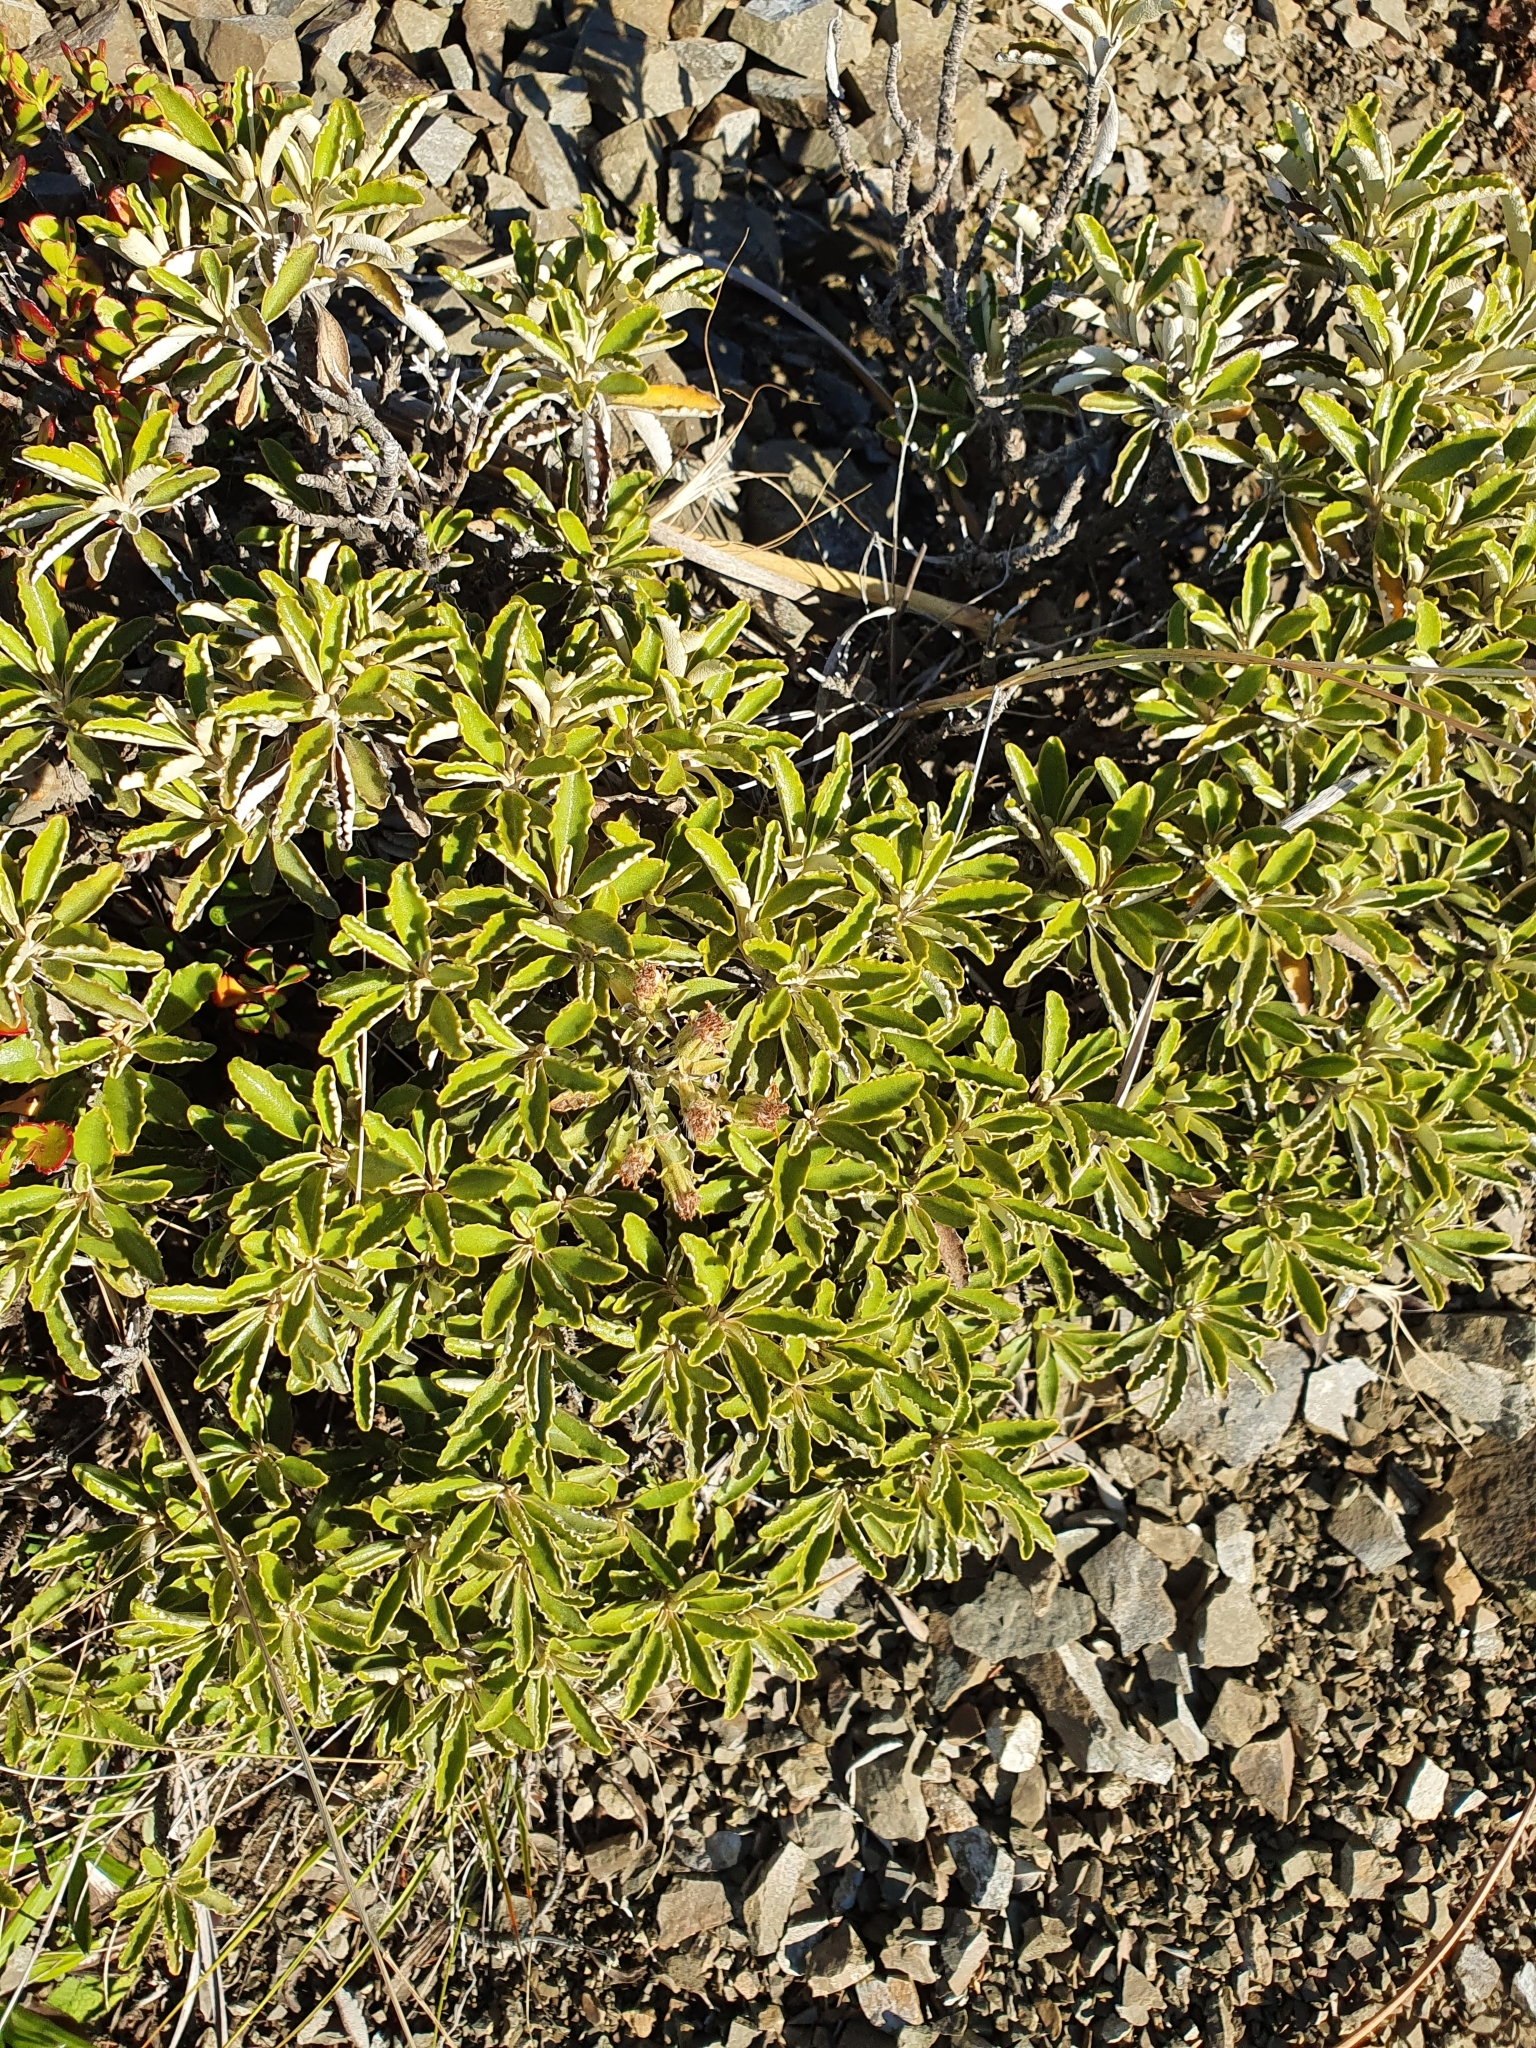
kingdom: Plantae
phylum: Tracheophyta
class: Magnoliopsida
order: Asterales
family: Asteraceae
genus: Brachyglottis
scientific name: Brachyglottis monroi
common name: Monro's ragwort
